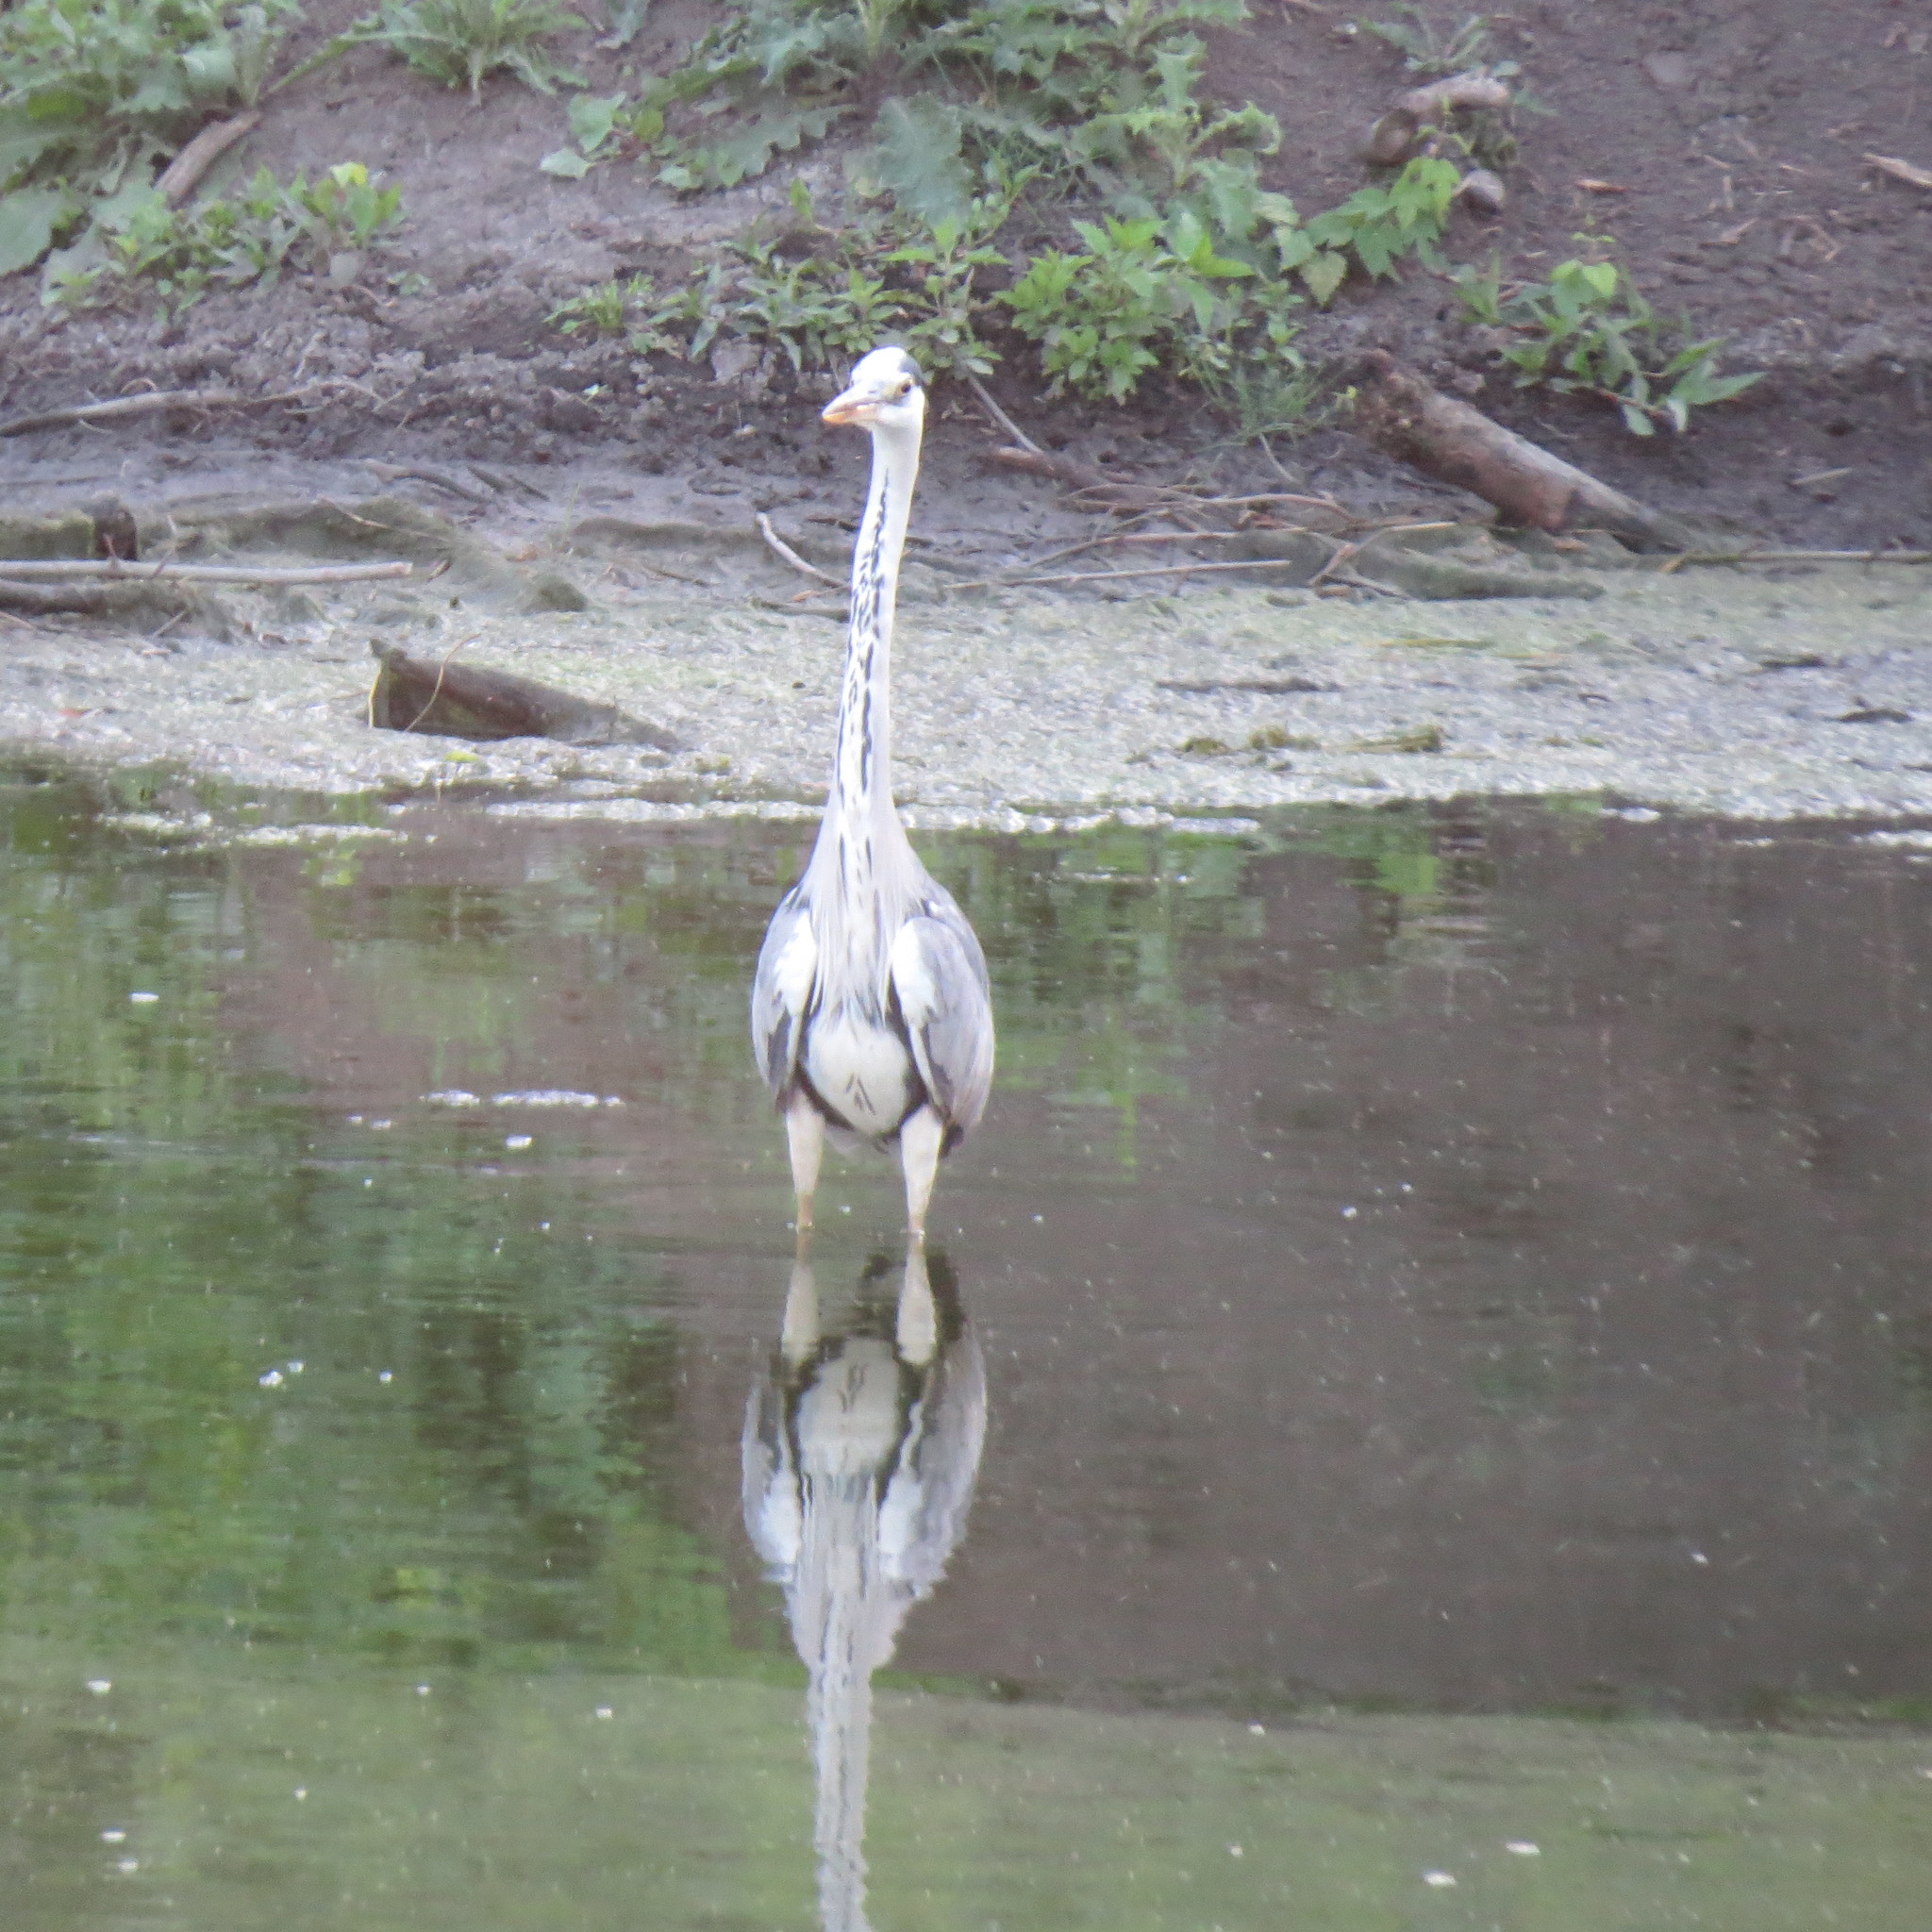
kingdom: Animalia
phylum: Chordata
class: Aves
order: Pelecaniformes
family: Ardeidae
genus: Ardea
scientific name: Ardea cinerea
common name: Grey heron
